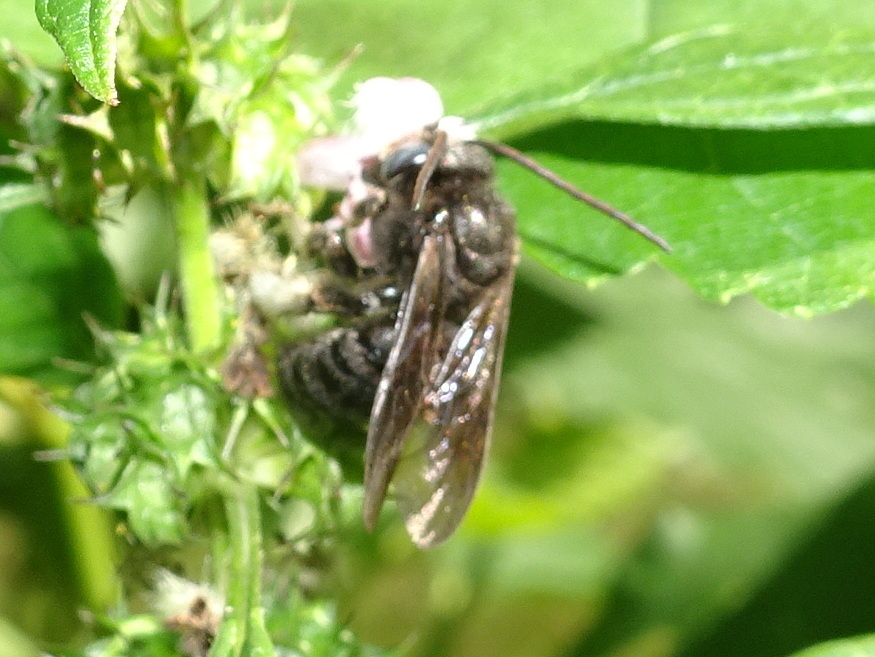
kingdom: Animalia
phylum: Arthropoda
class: Insecta
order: Hymenoptera
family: Apidae
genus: Melissodes
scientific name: Melissodes bimaculatus
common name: Two-spotted long-horned bee
